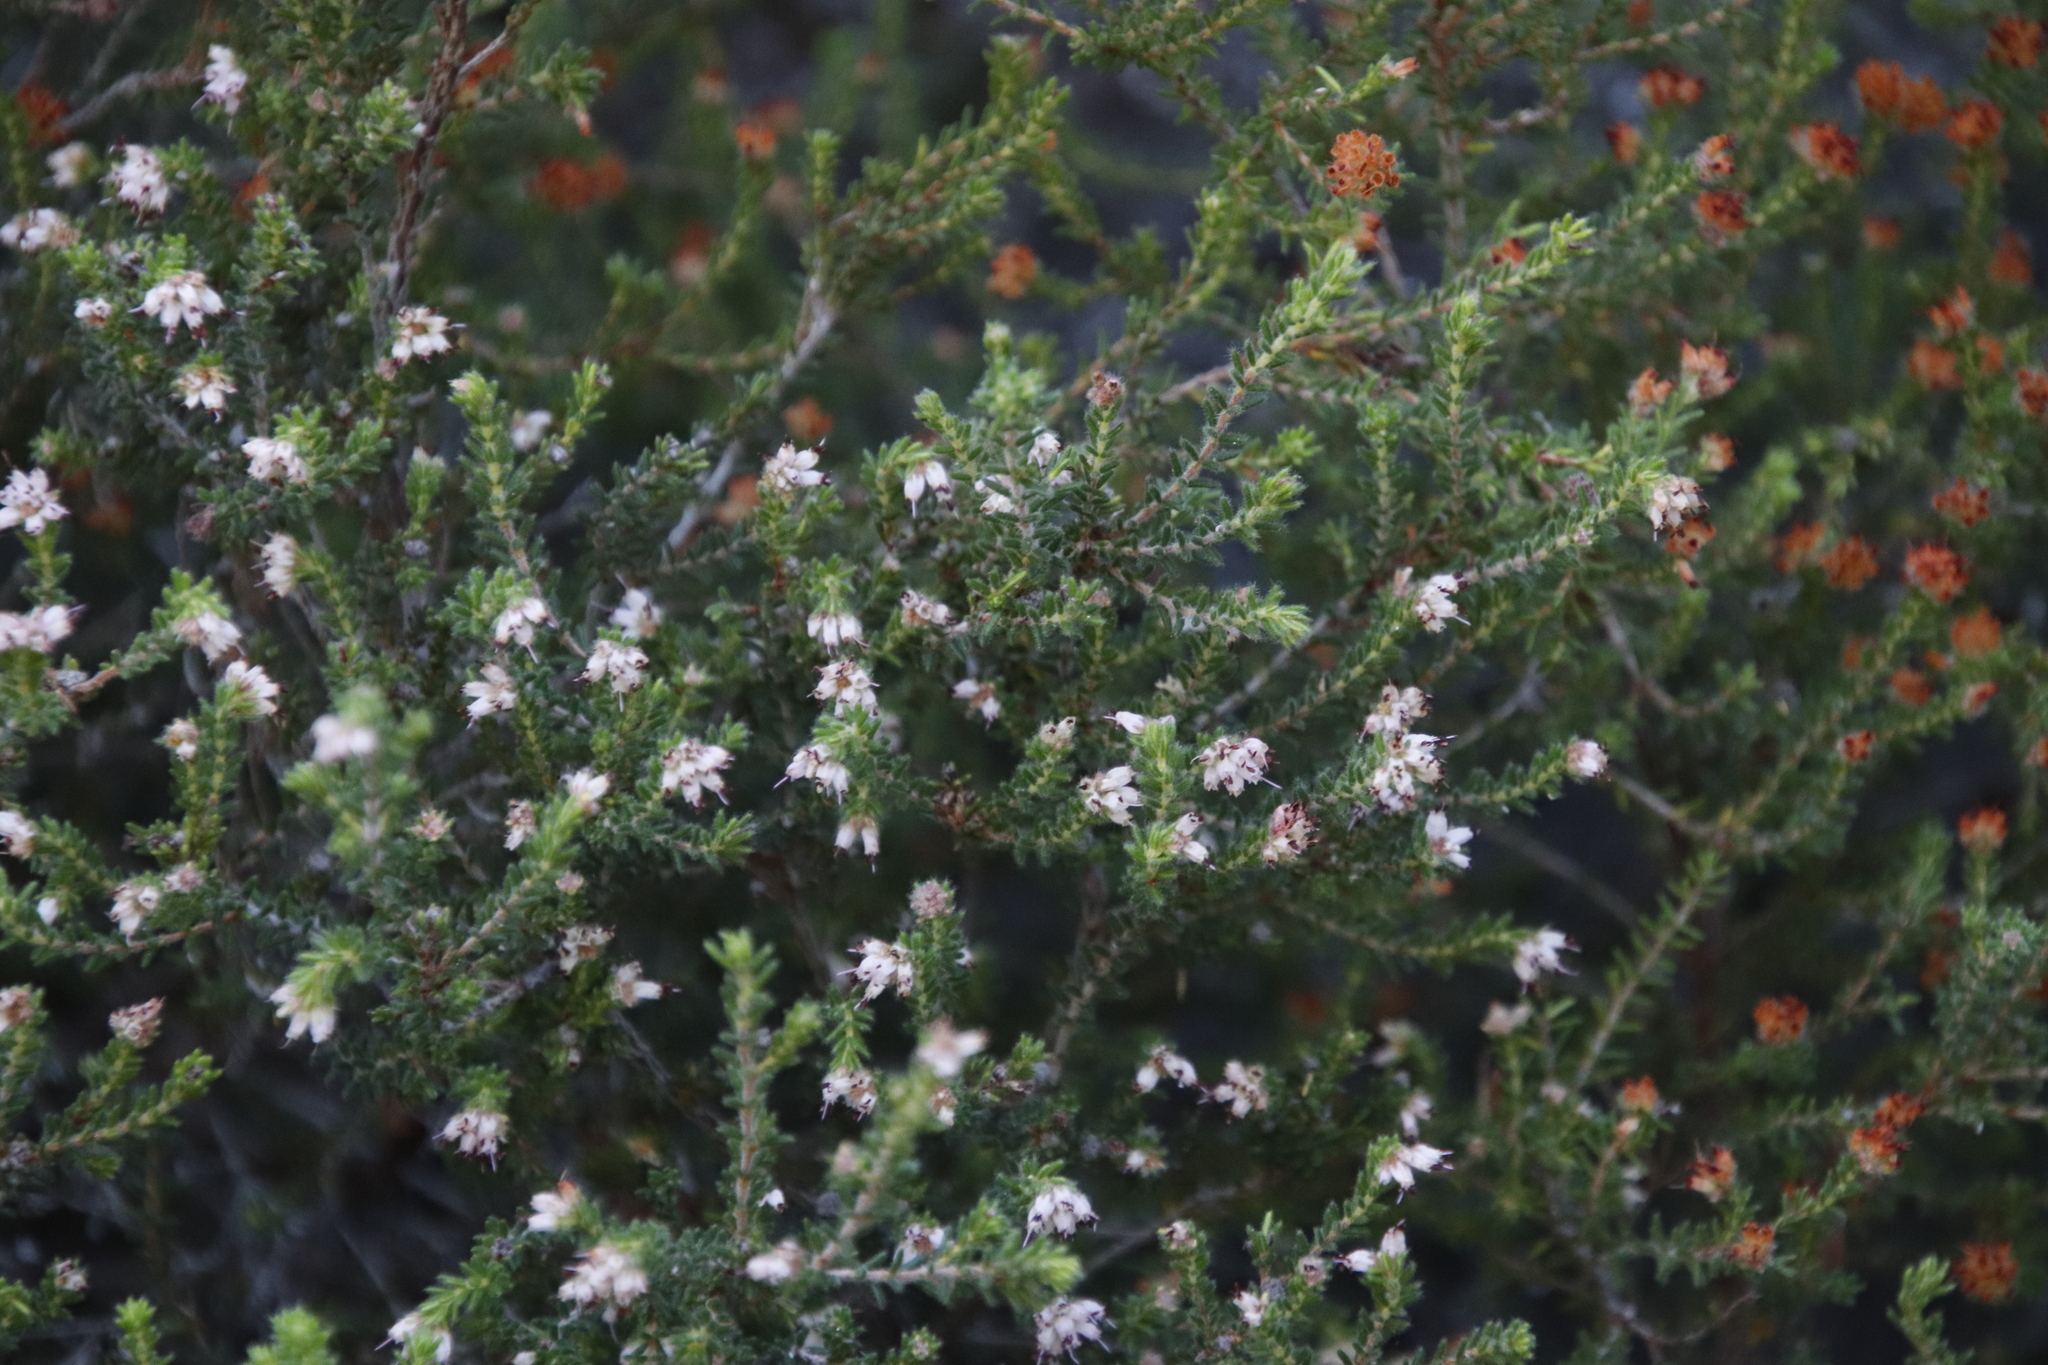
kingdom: Plantae
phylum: Tracheophyta
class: Magnoliopsida
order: Ericales
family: Ericaceae
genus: Erica
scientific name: Erica ericoides
